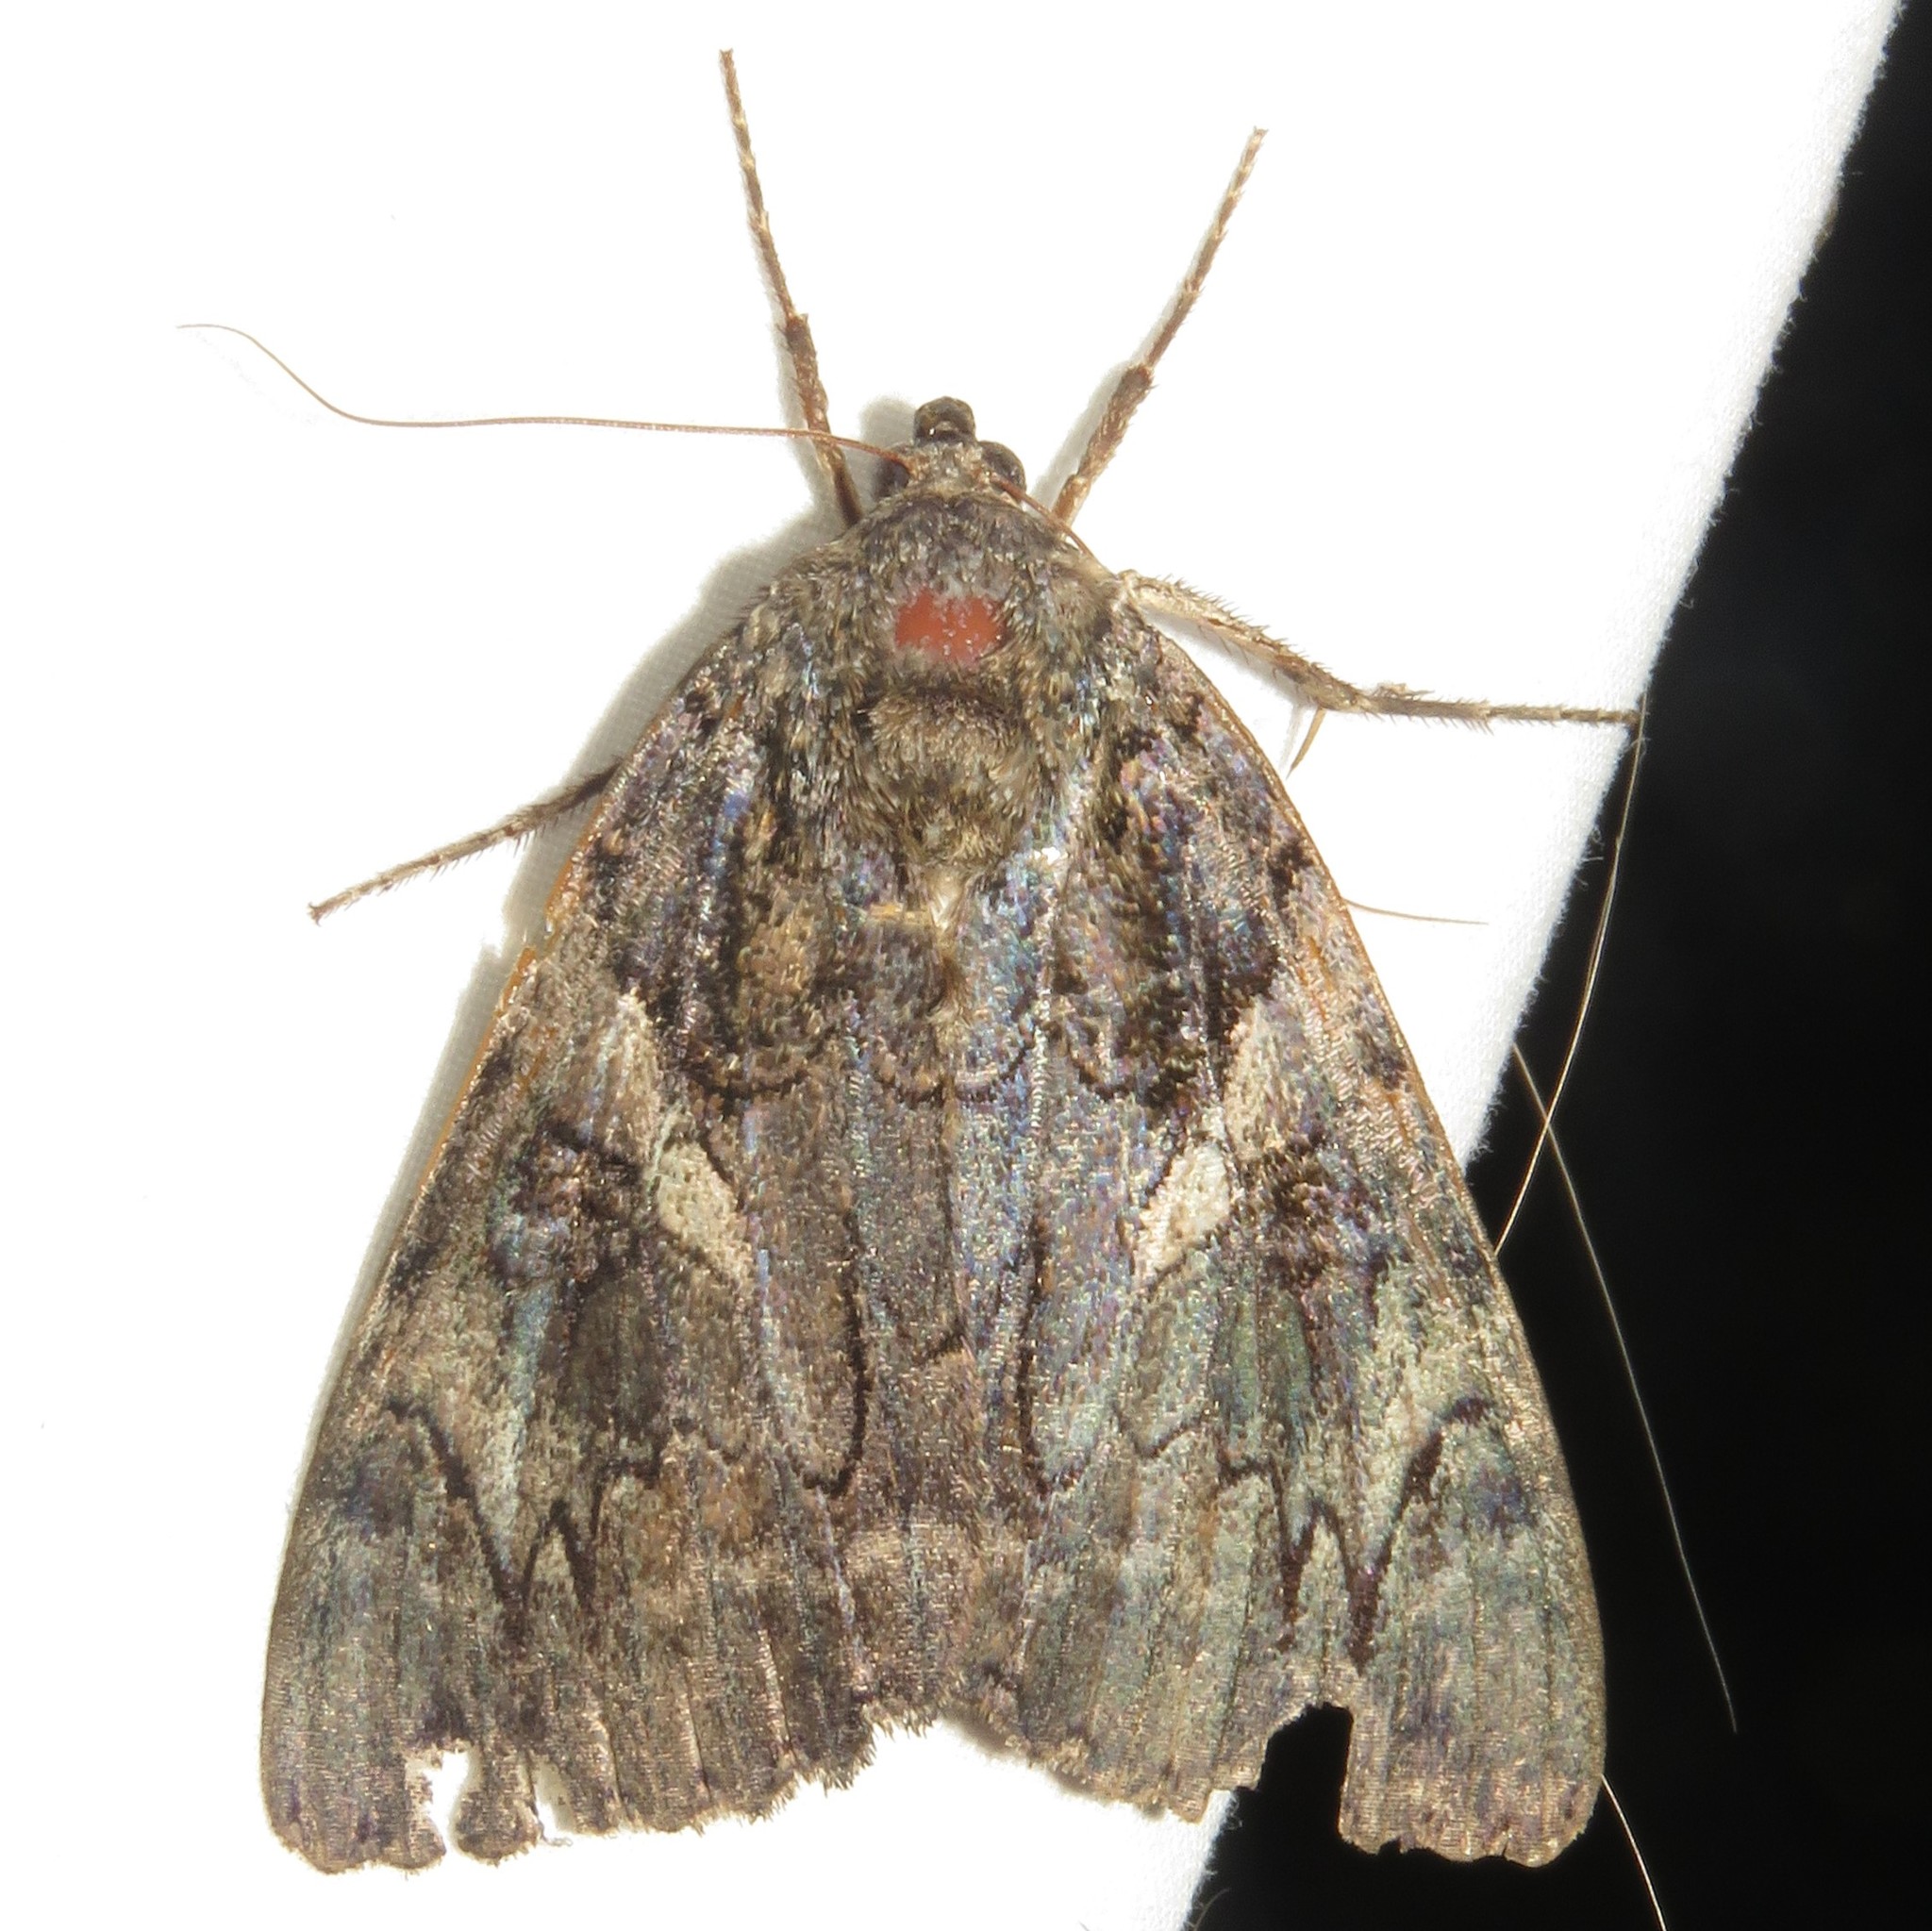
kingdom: Animalia
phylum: Arthropoda
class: Insecta
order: Lepidoptera
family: Erebidae
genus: Catocala
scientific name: Catocala piatrix
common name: The penitent underwing
